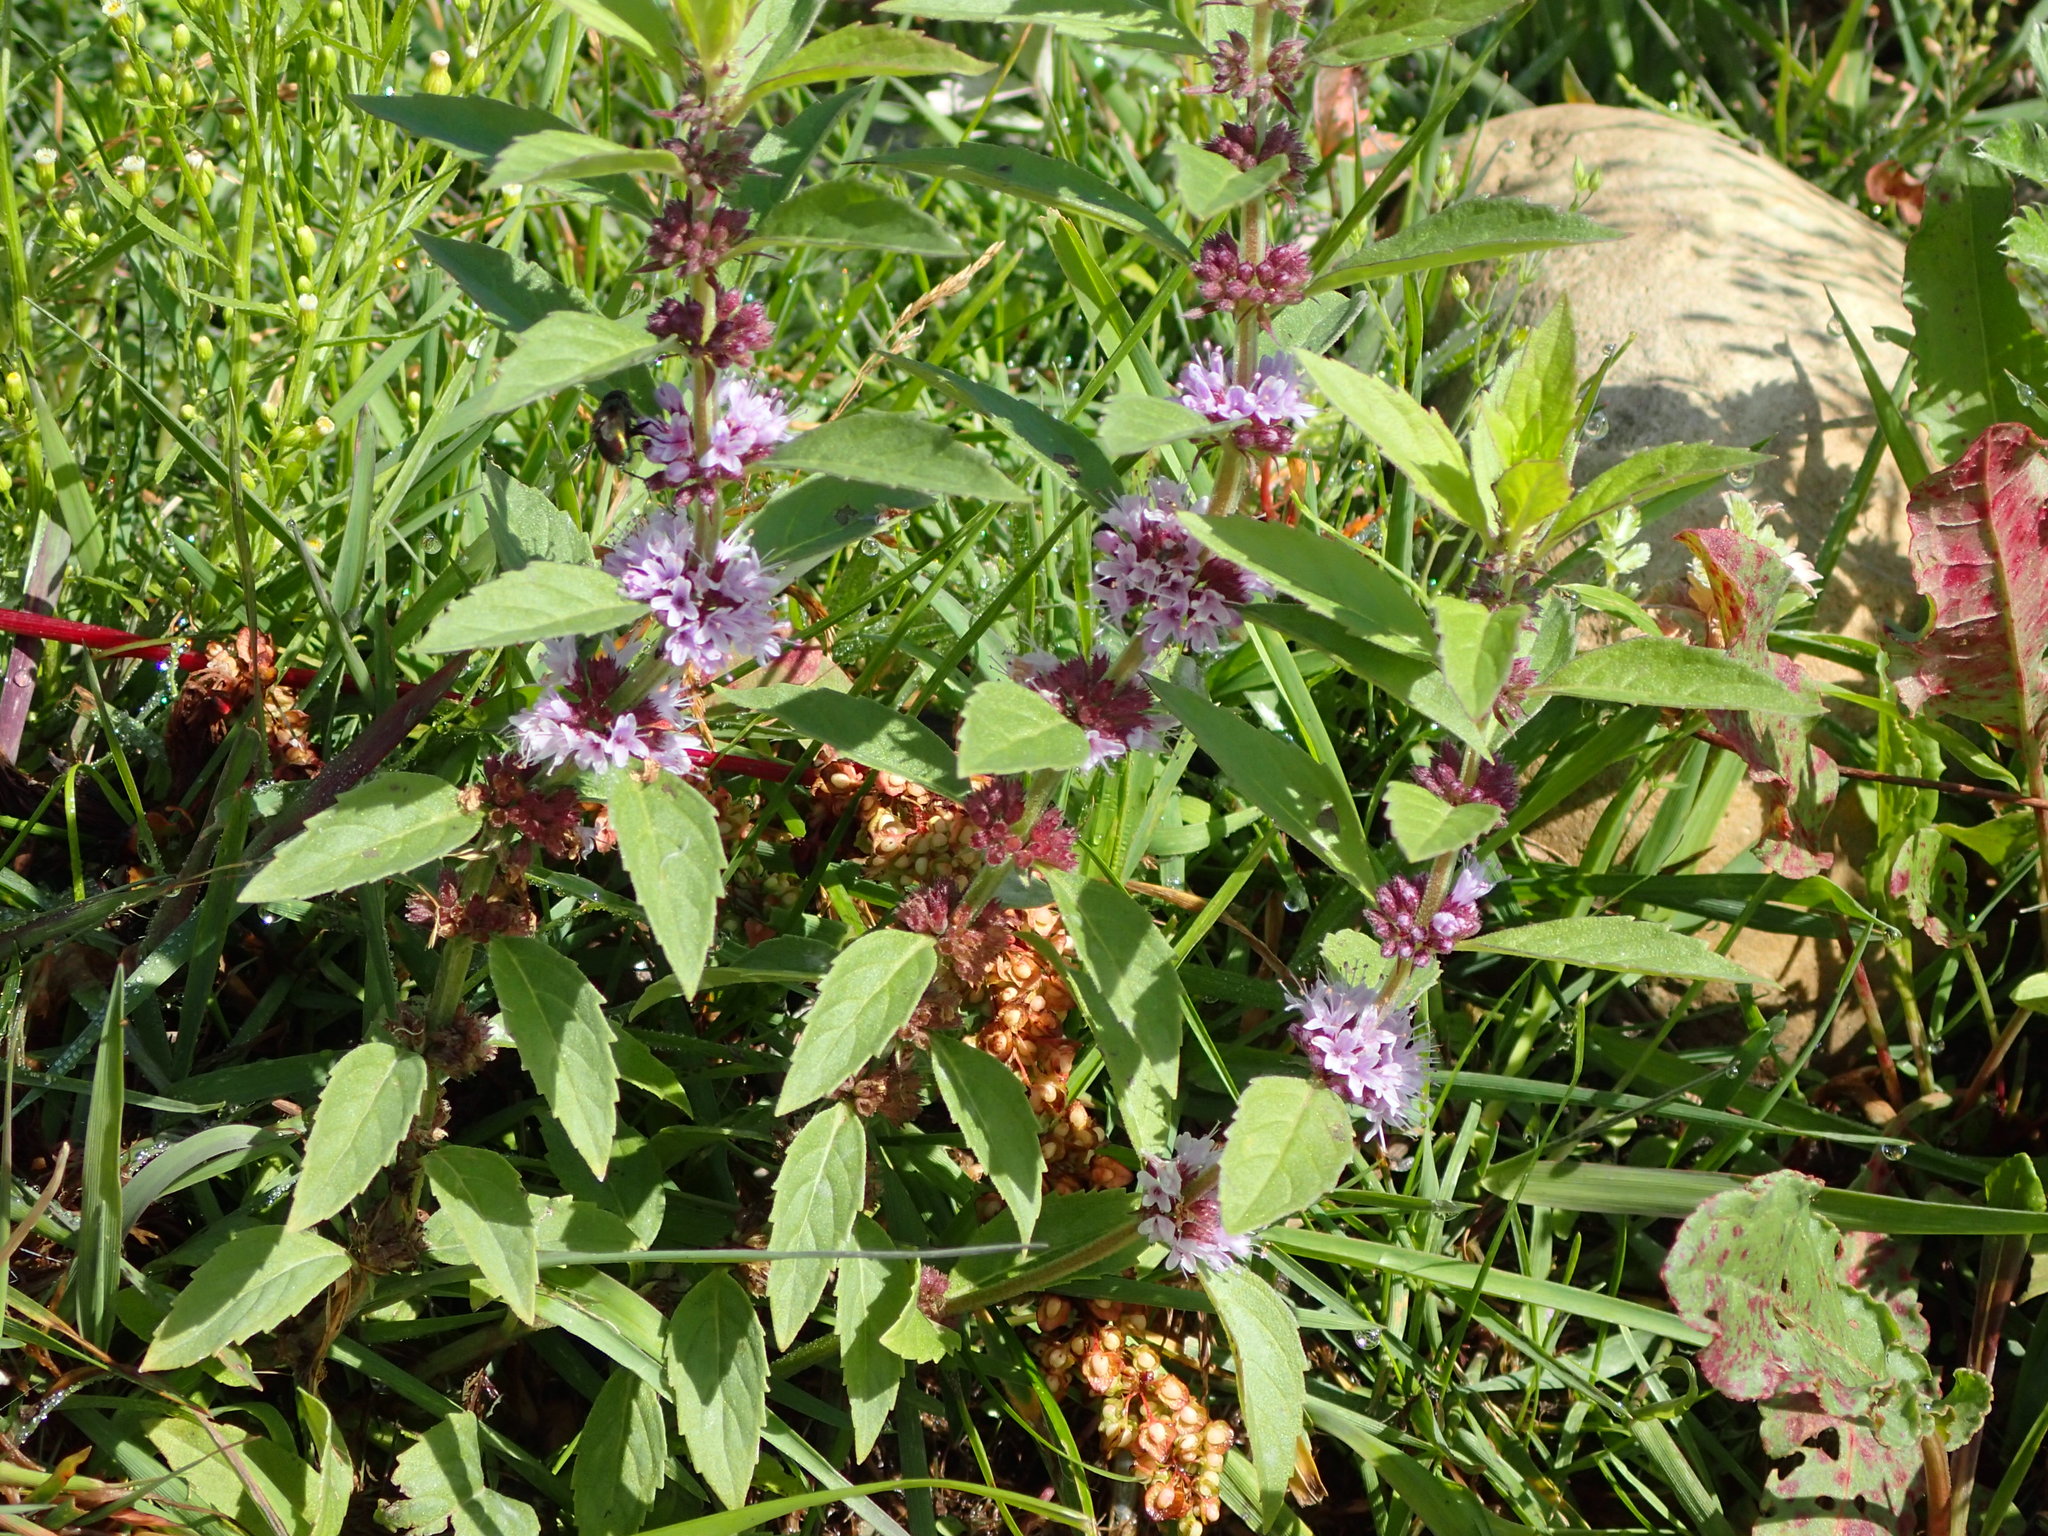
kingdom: Plantae
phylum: Tracheophyta
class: Magnoliopsida
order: Lamiales
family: Lamiaceae
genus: Mentha
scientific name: Mentha canadensis
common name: American corn mint
